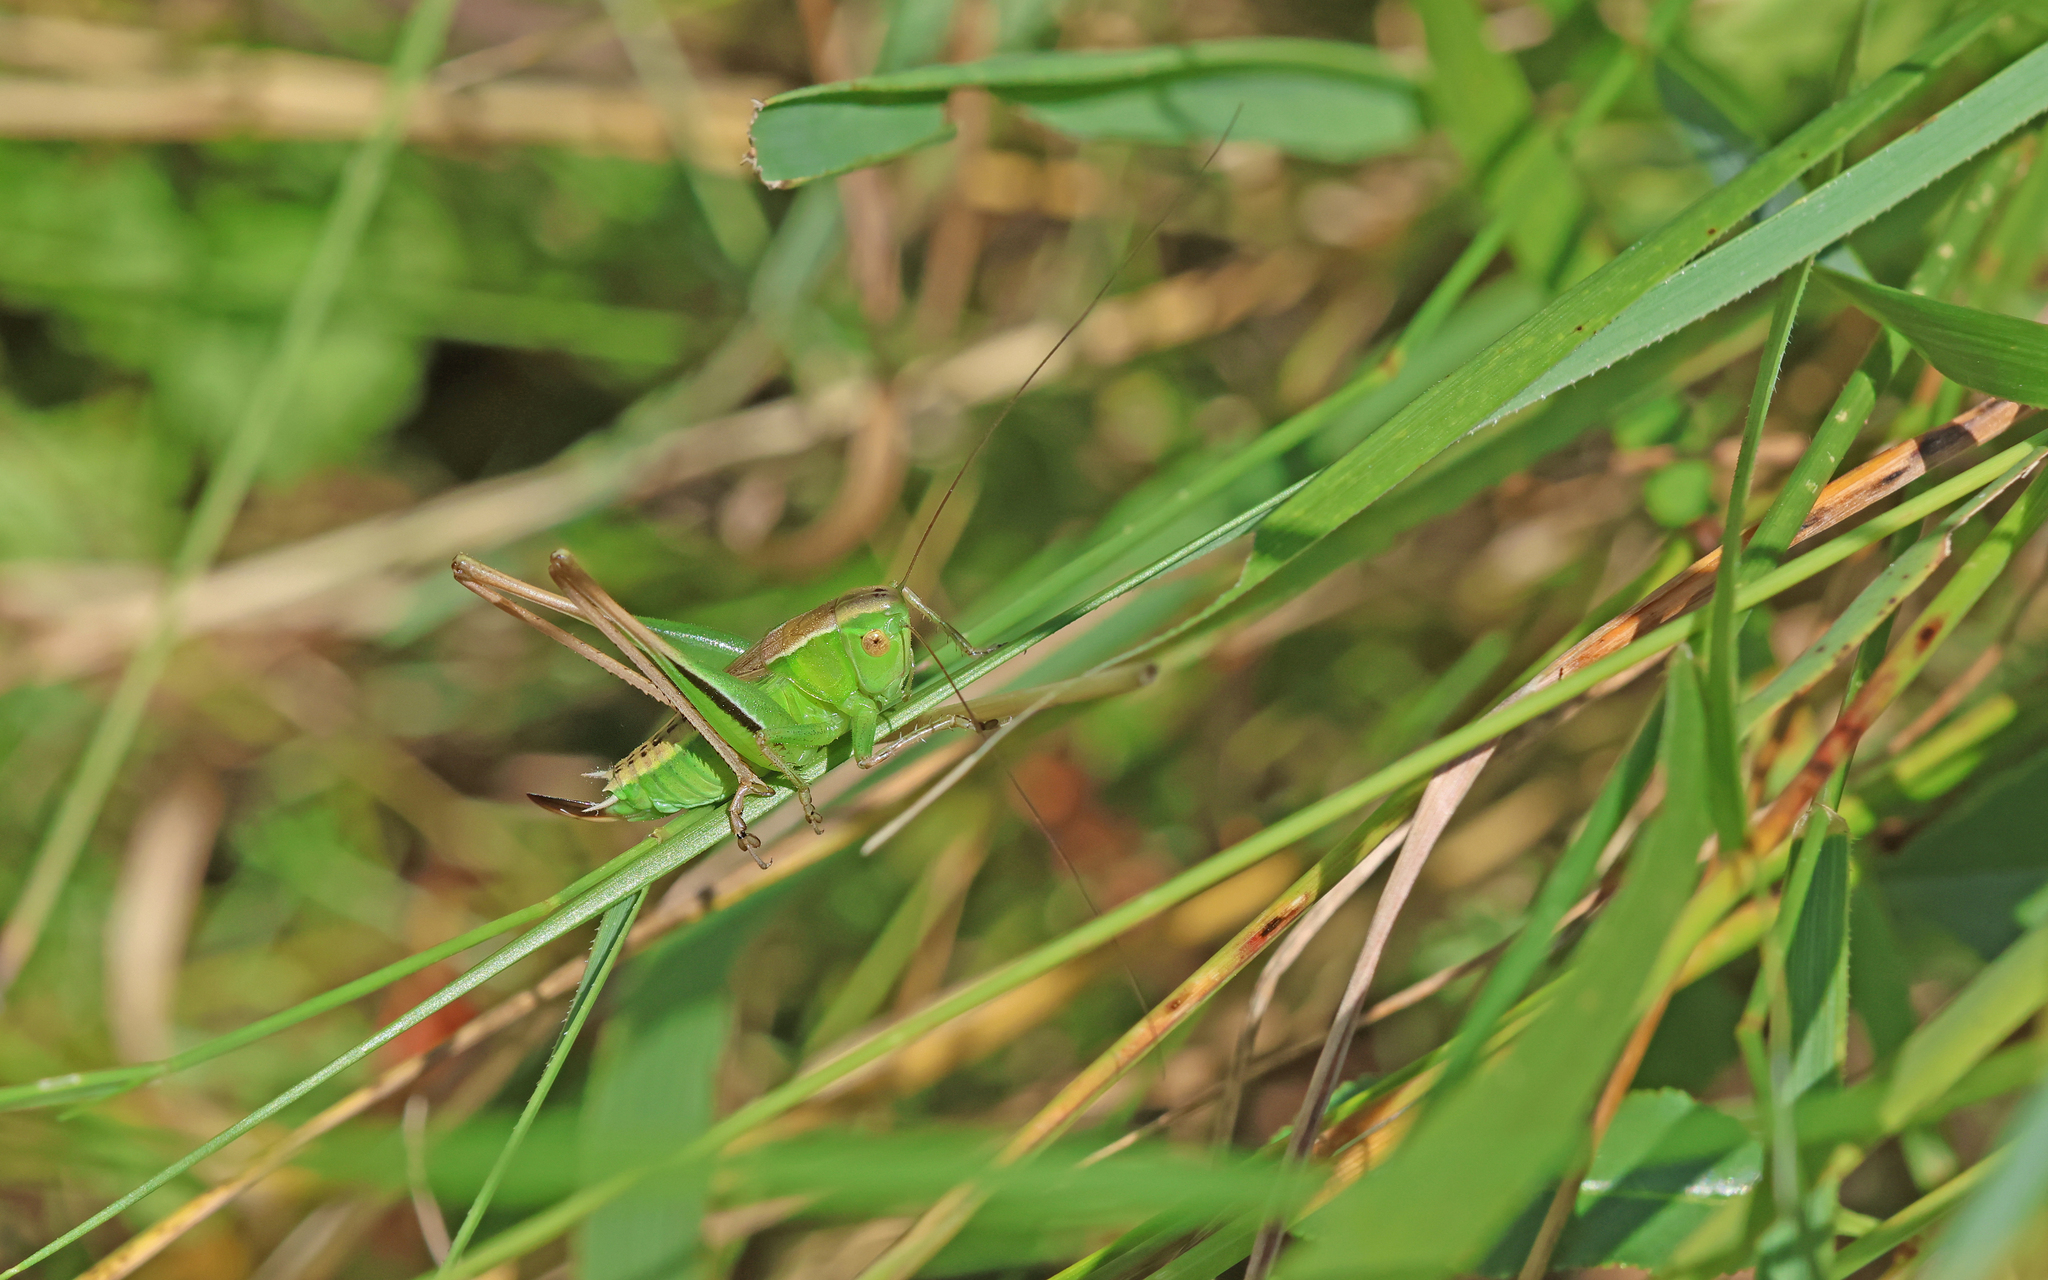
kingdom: Animalia
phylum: Arthropoda
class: Insecta
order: Orthoptera
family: Tettigoniidae
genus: Bicolorana
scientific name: Bicolorana bicolor
